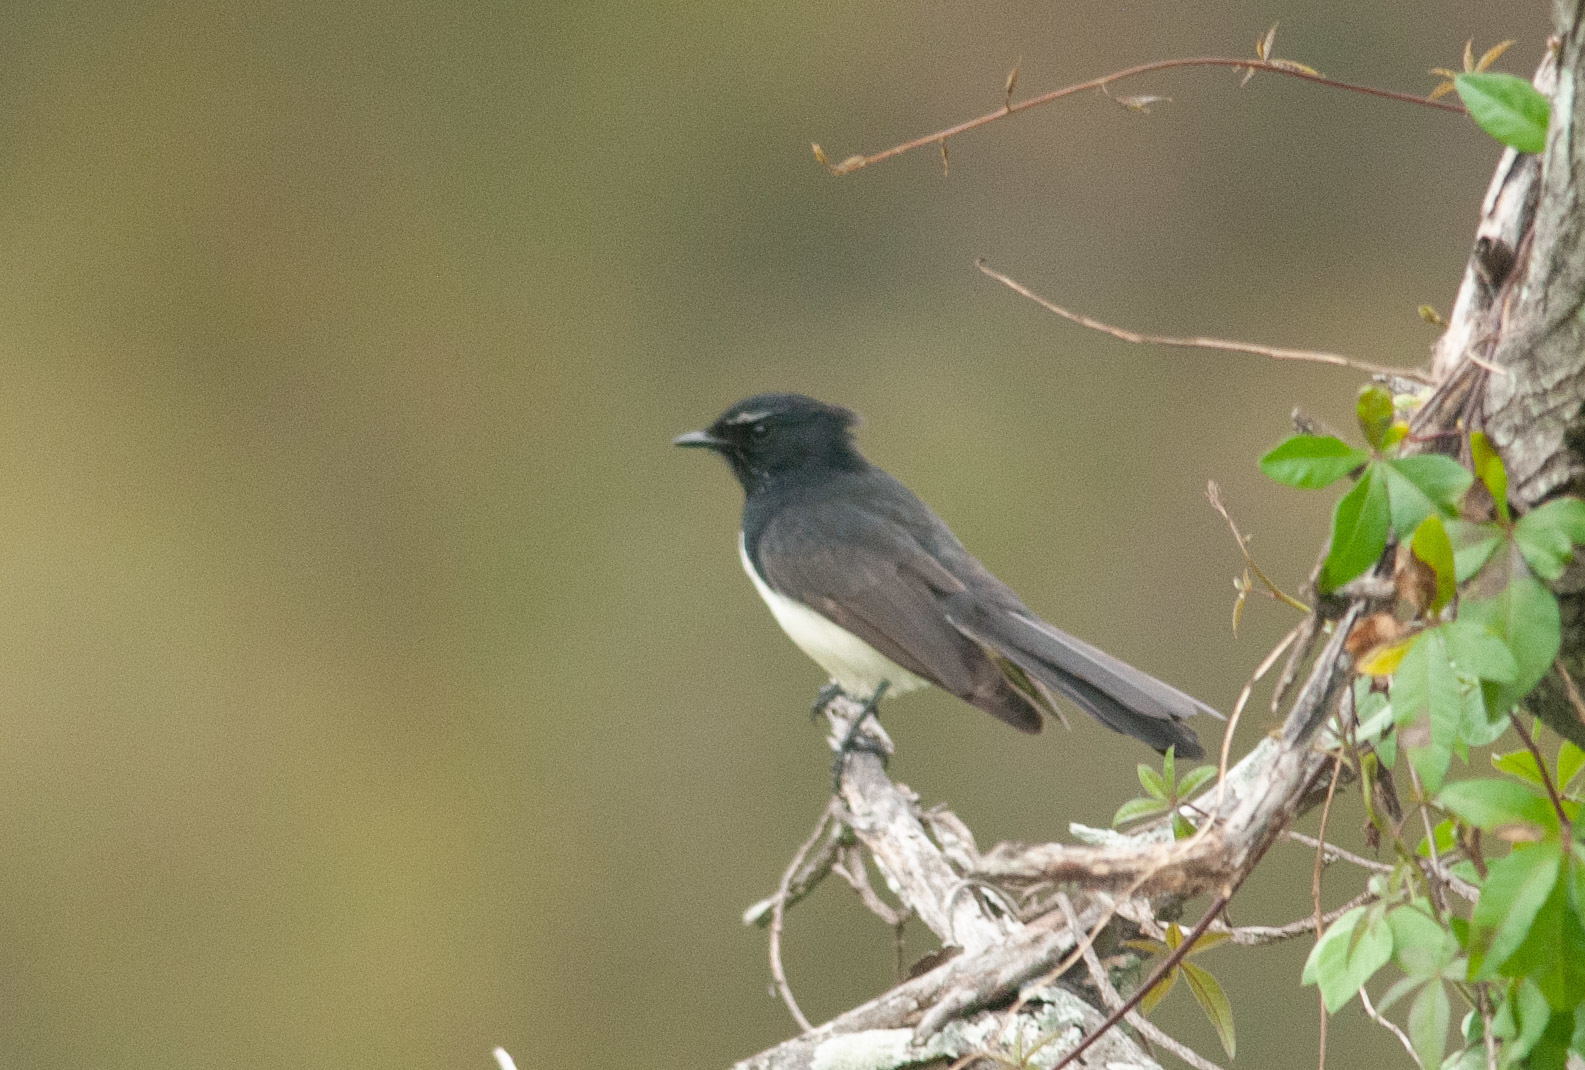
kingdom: Animalia
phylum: Chordata
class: Aves
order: Passeriformes
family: Rhipiduridae
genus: Rhipidura
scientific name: Rhipidura leucophrys
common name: Willie wagtail
